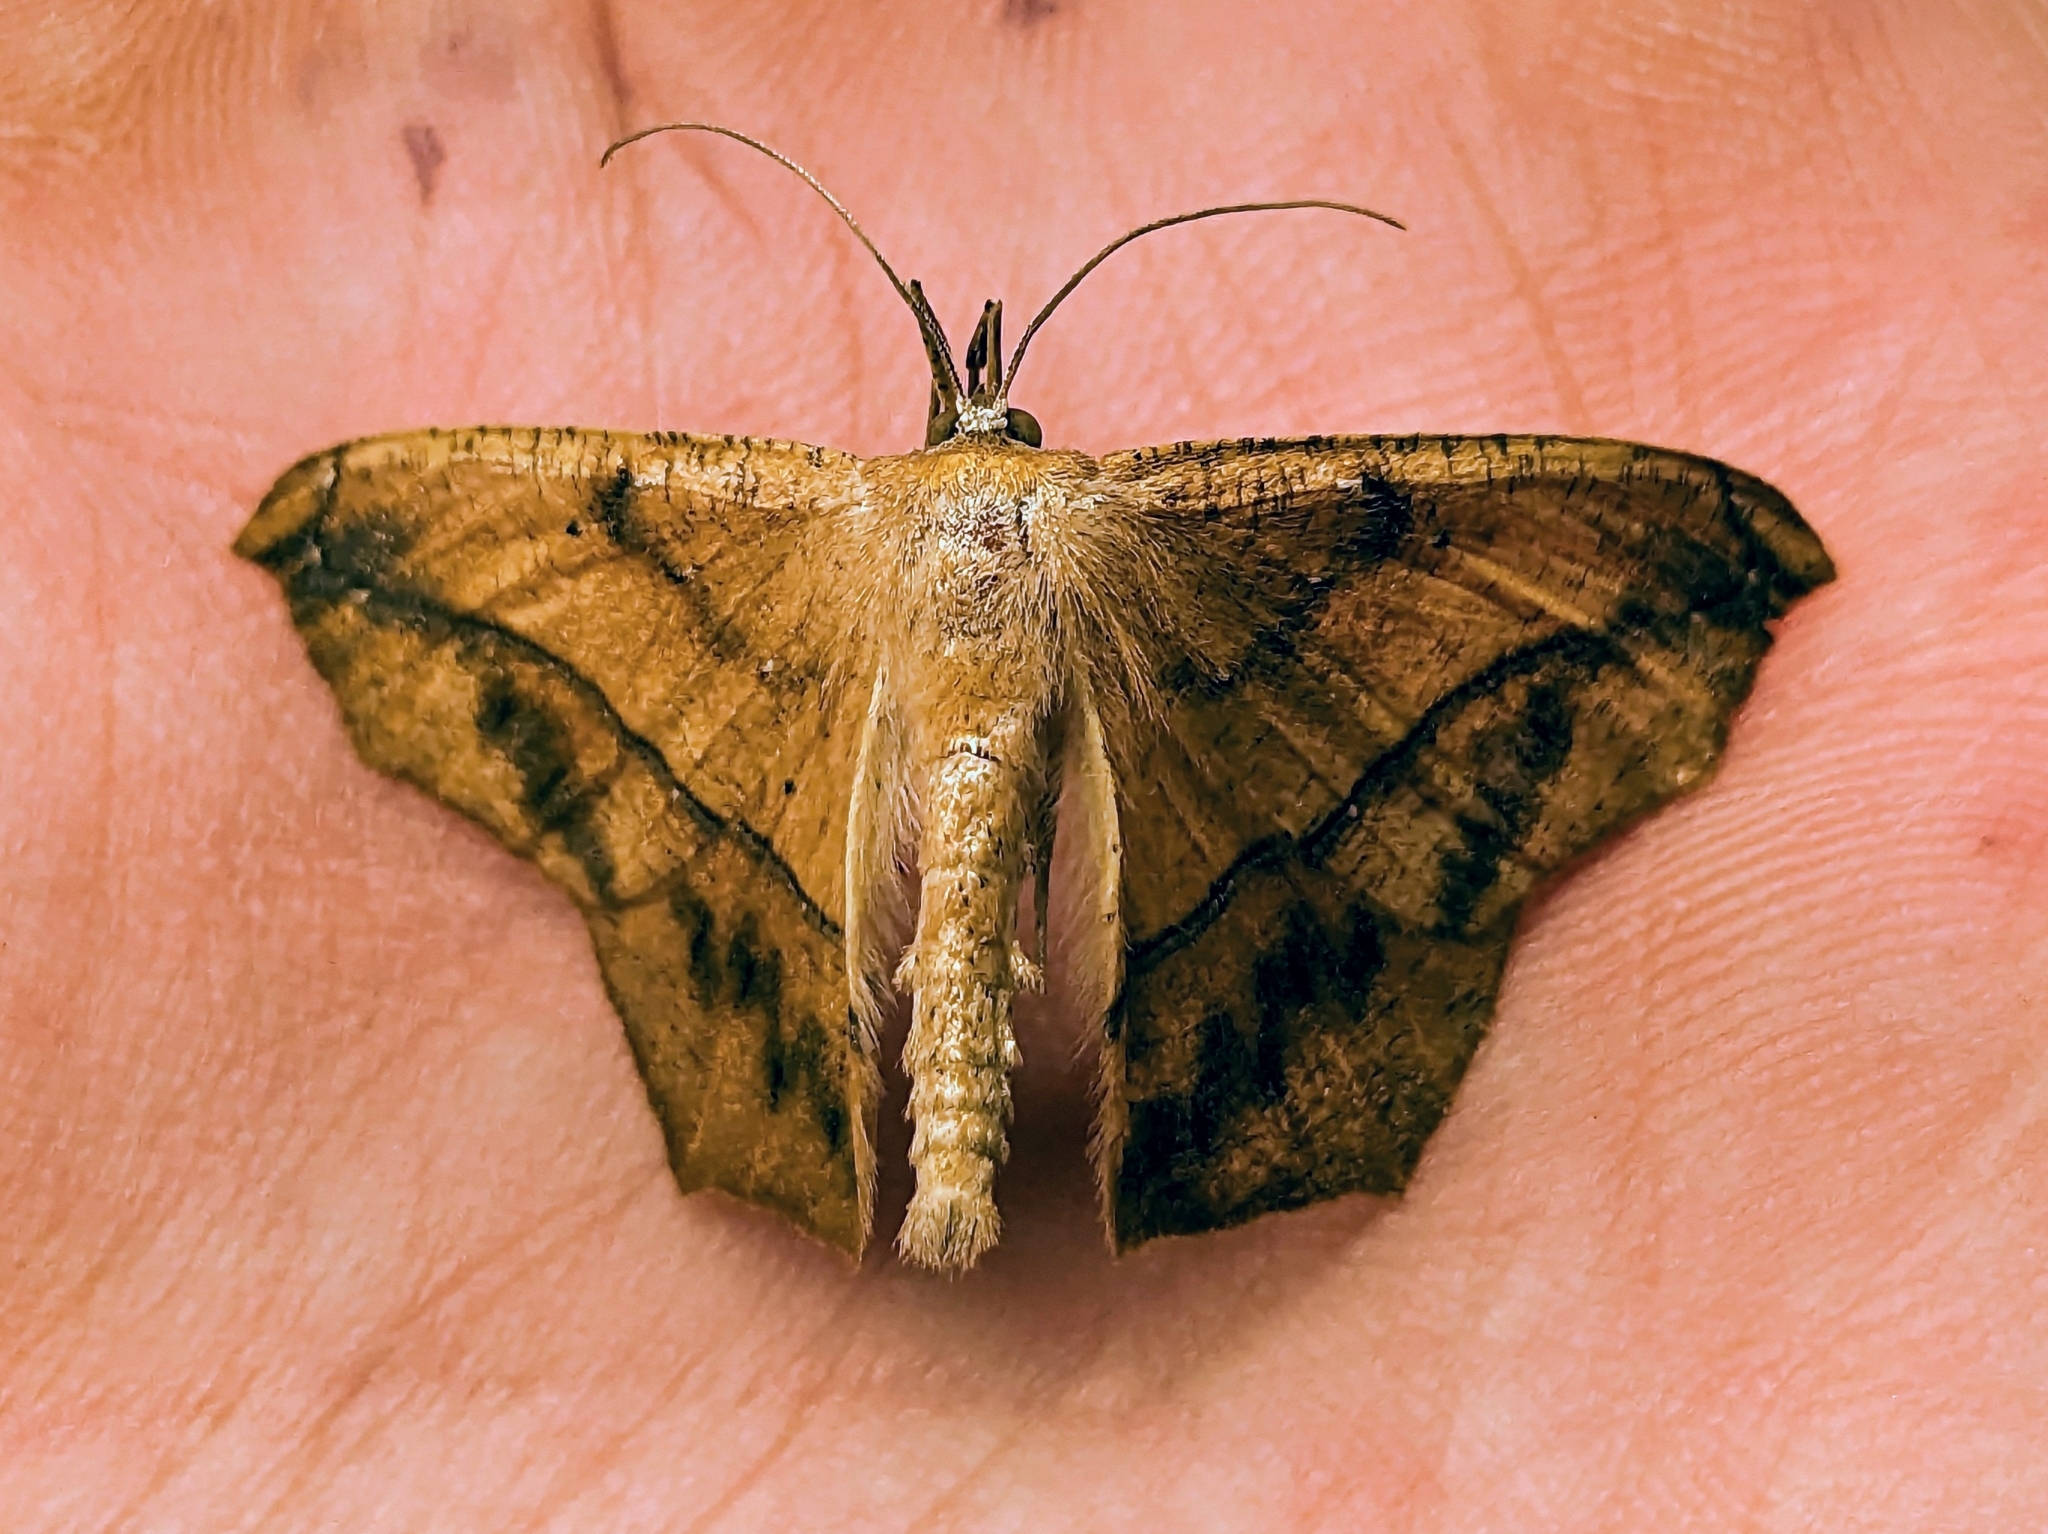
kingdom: Animalia
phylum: Arthropoda
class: Insecta
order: Lepidoptera
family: Geometridae
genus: Prochoerodes
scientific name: Prochoerodes lineola
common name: Large maple spanworm
